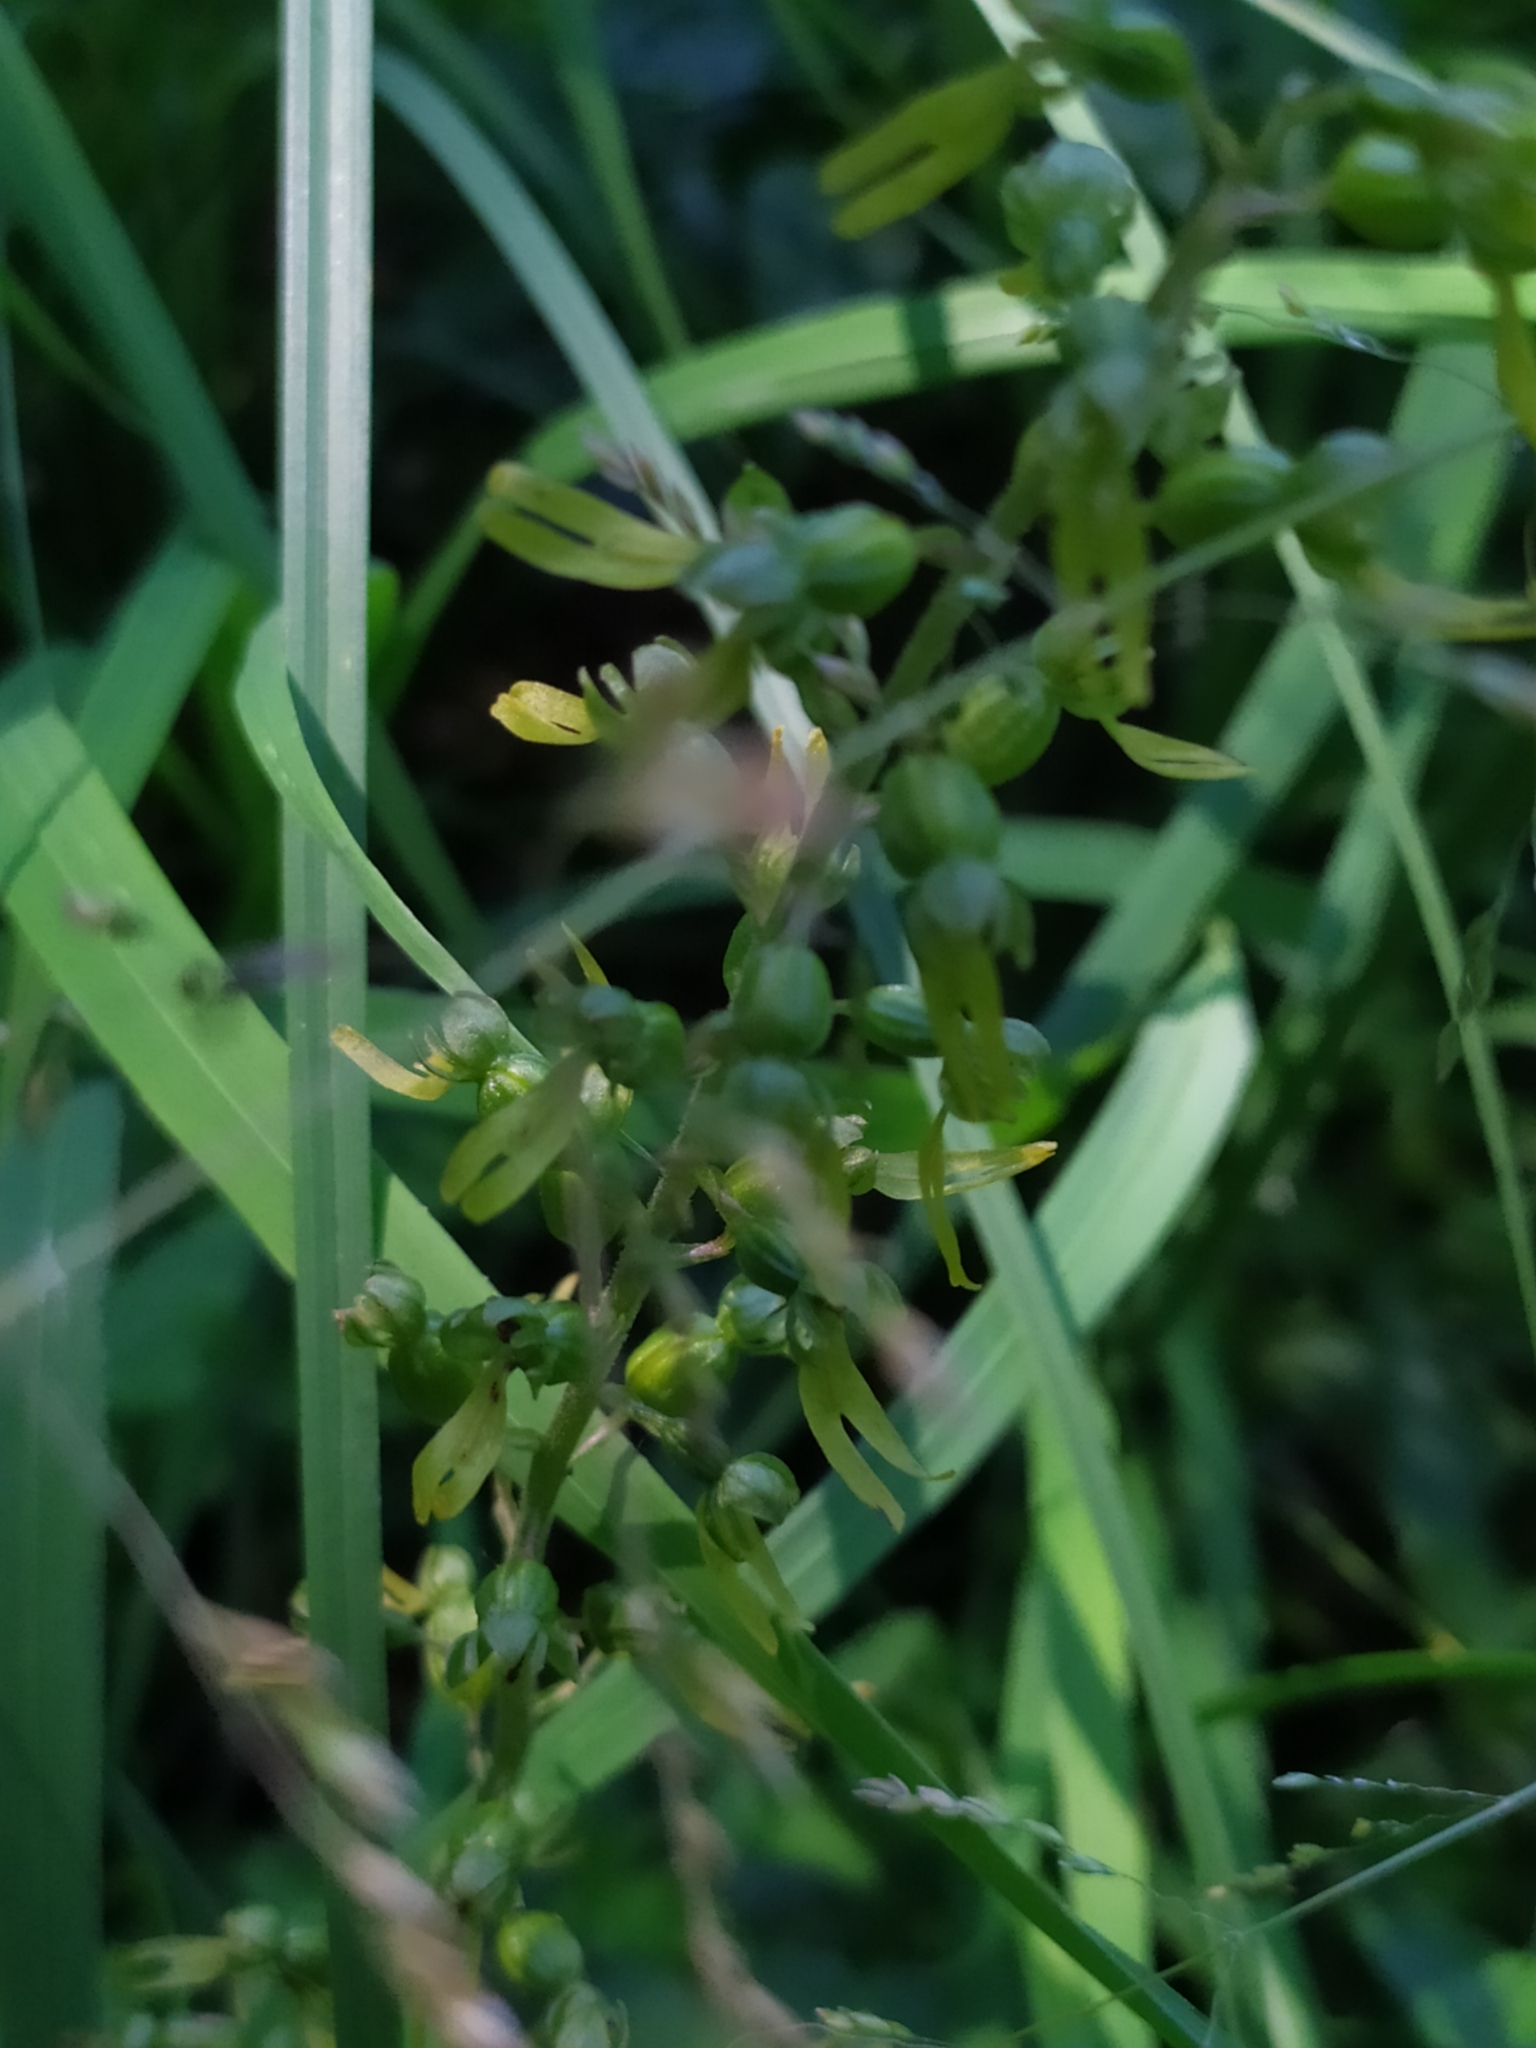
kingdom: Plantae
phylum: Tracheophyta
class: Liliopsida
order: Asparagales
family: Orchidaceae
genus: Neottia
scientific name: Neottia ovata
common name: Common twayblade
